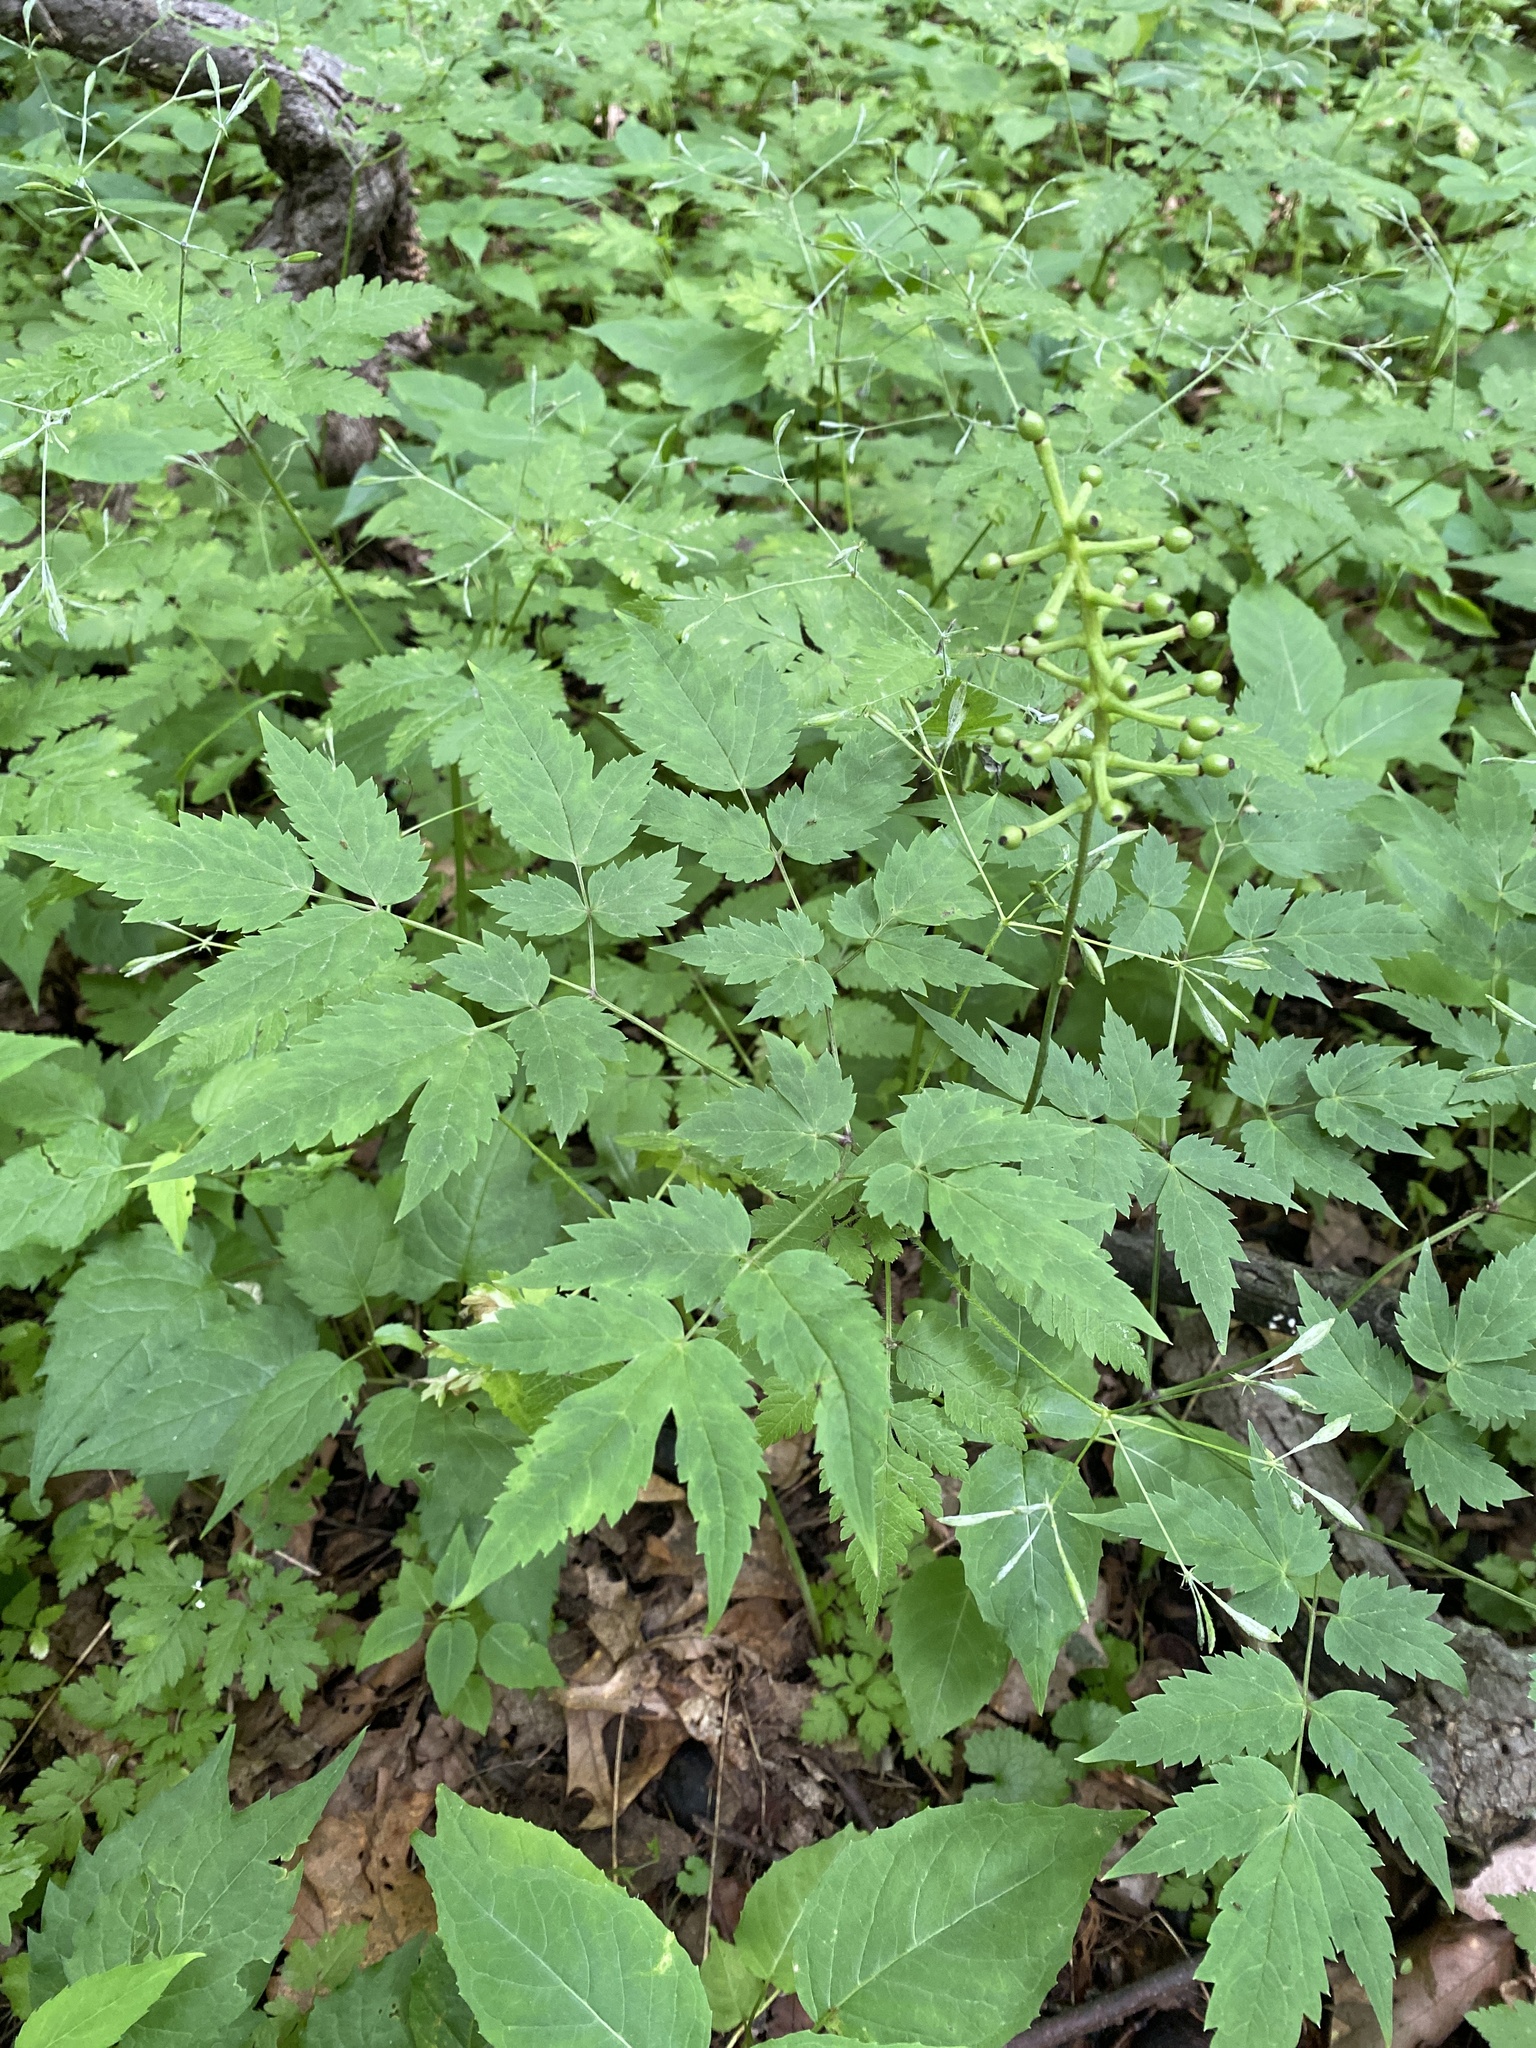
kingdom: Plantae
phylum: Tracheophyta
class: Magnoliopsida
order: Ranunculales
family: Ranunculaceae
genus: Actaea
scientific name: Actaea pachypoda
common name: Doll's-eyes
